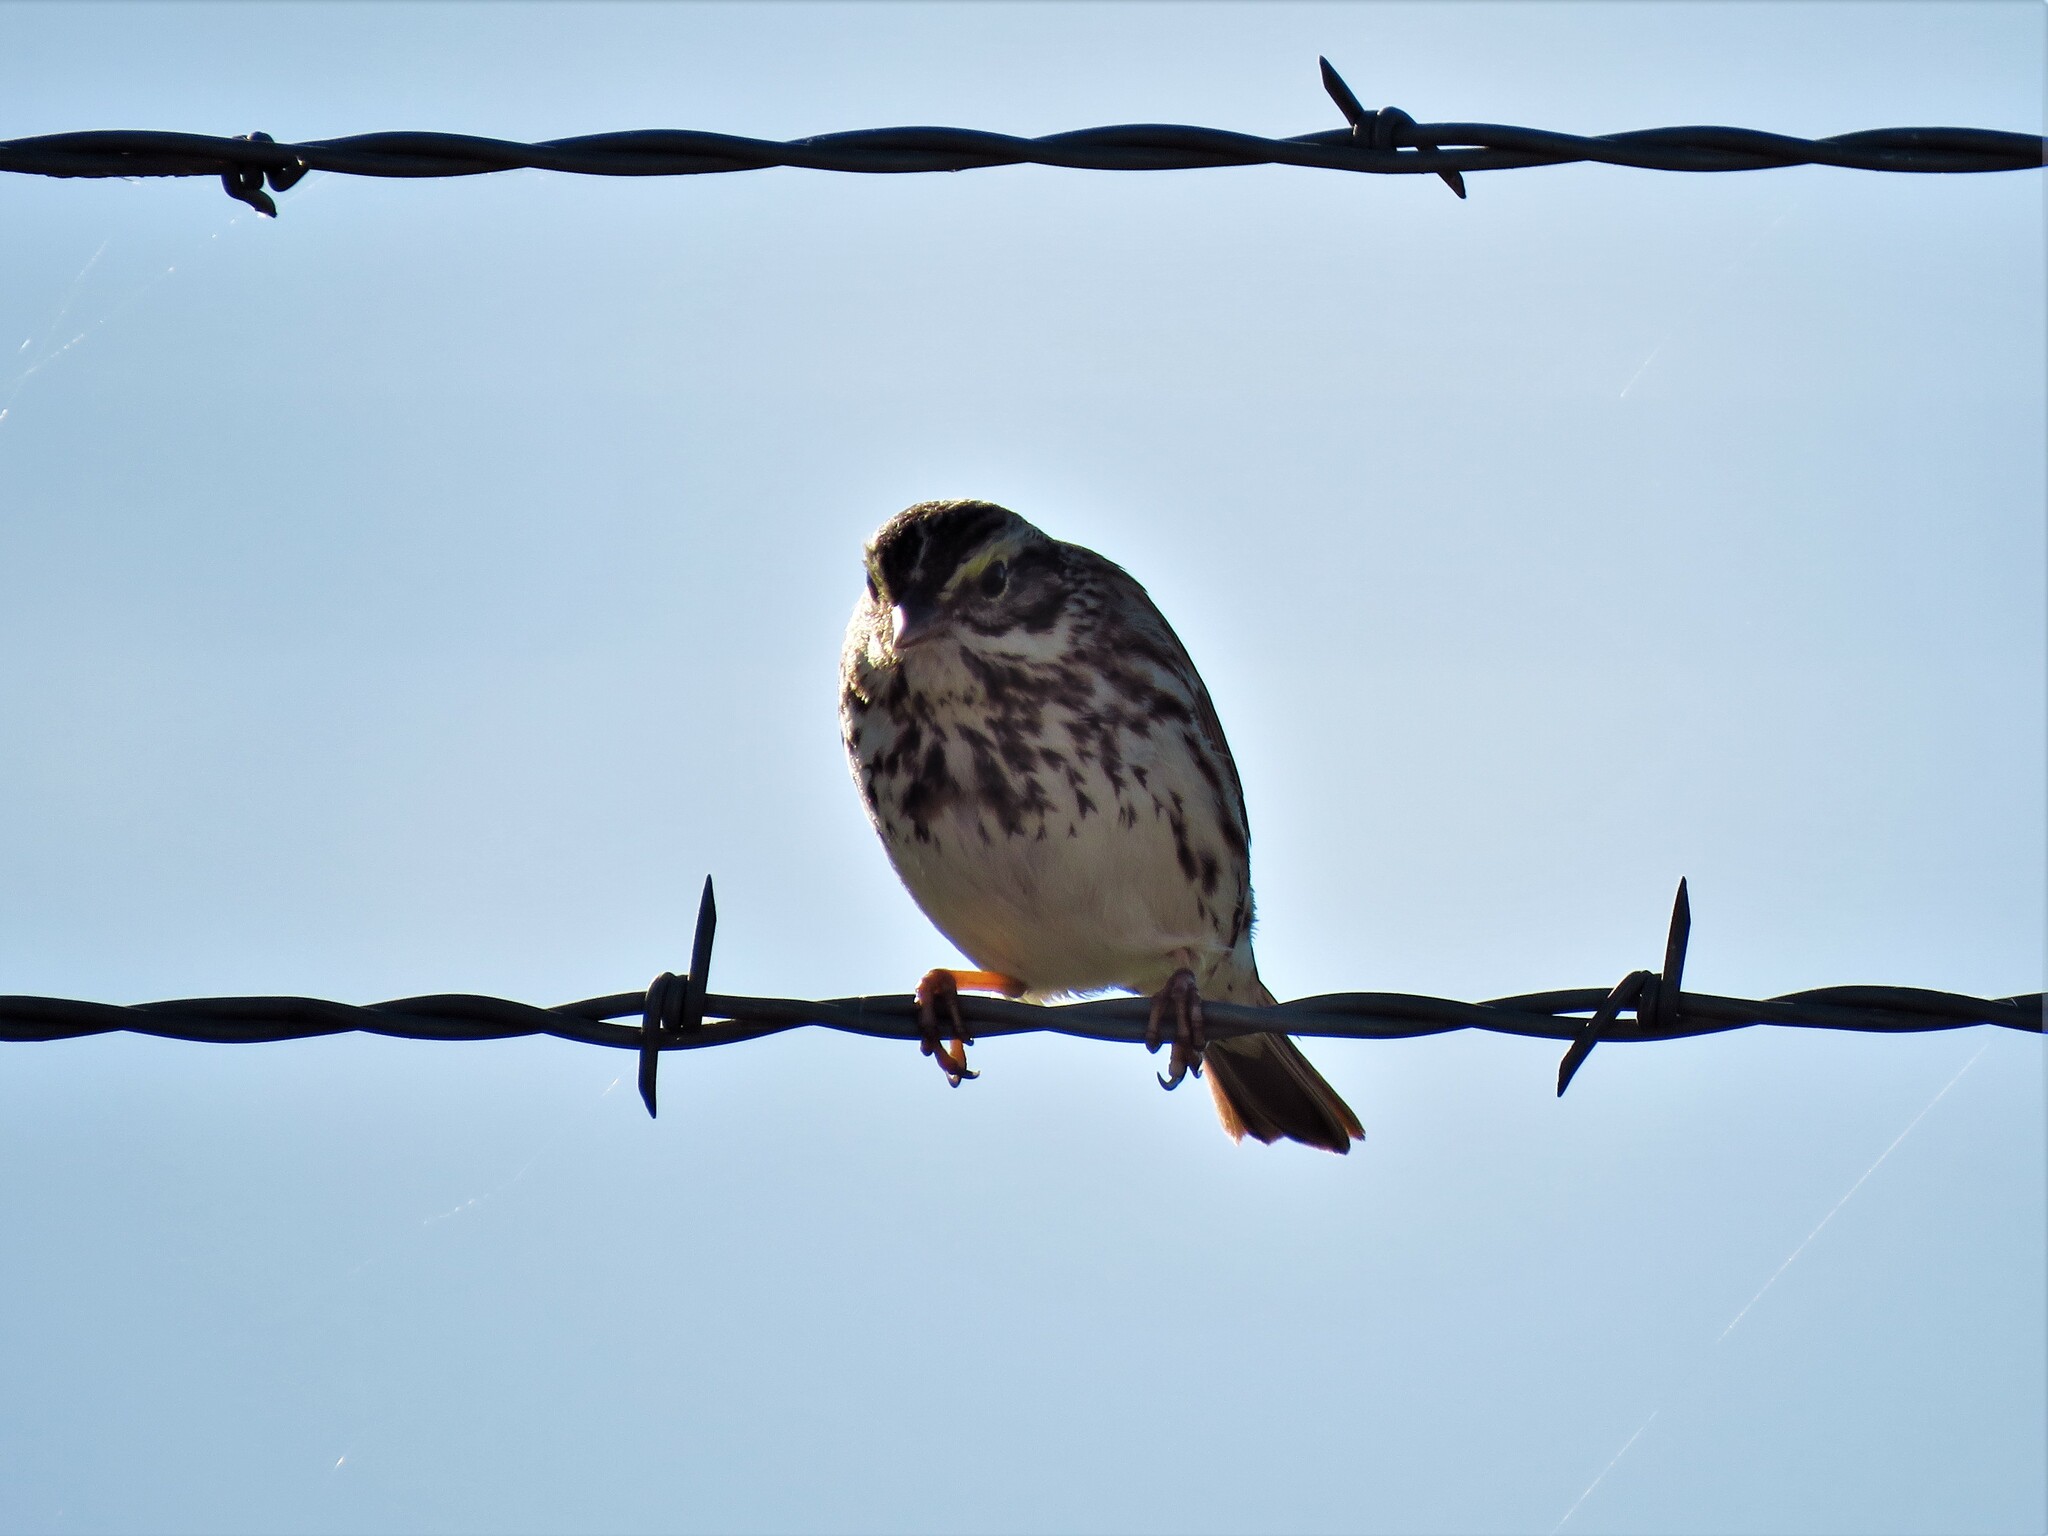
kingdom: Animalia
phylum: Chordata
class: Aves
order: Passeriformes
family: Passerellidae
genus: Passerculus
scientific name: Passerculus sandwichensis
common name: Savannah sparrow
